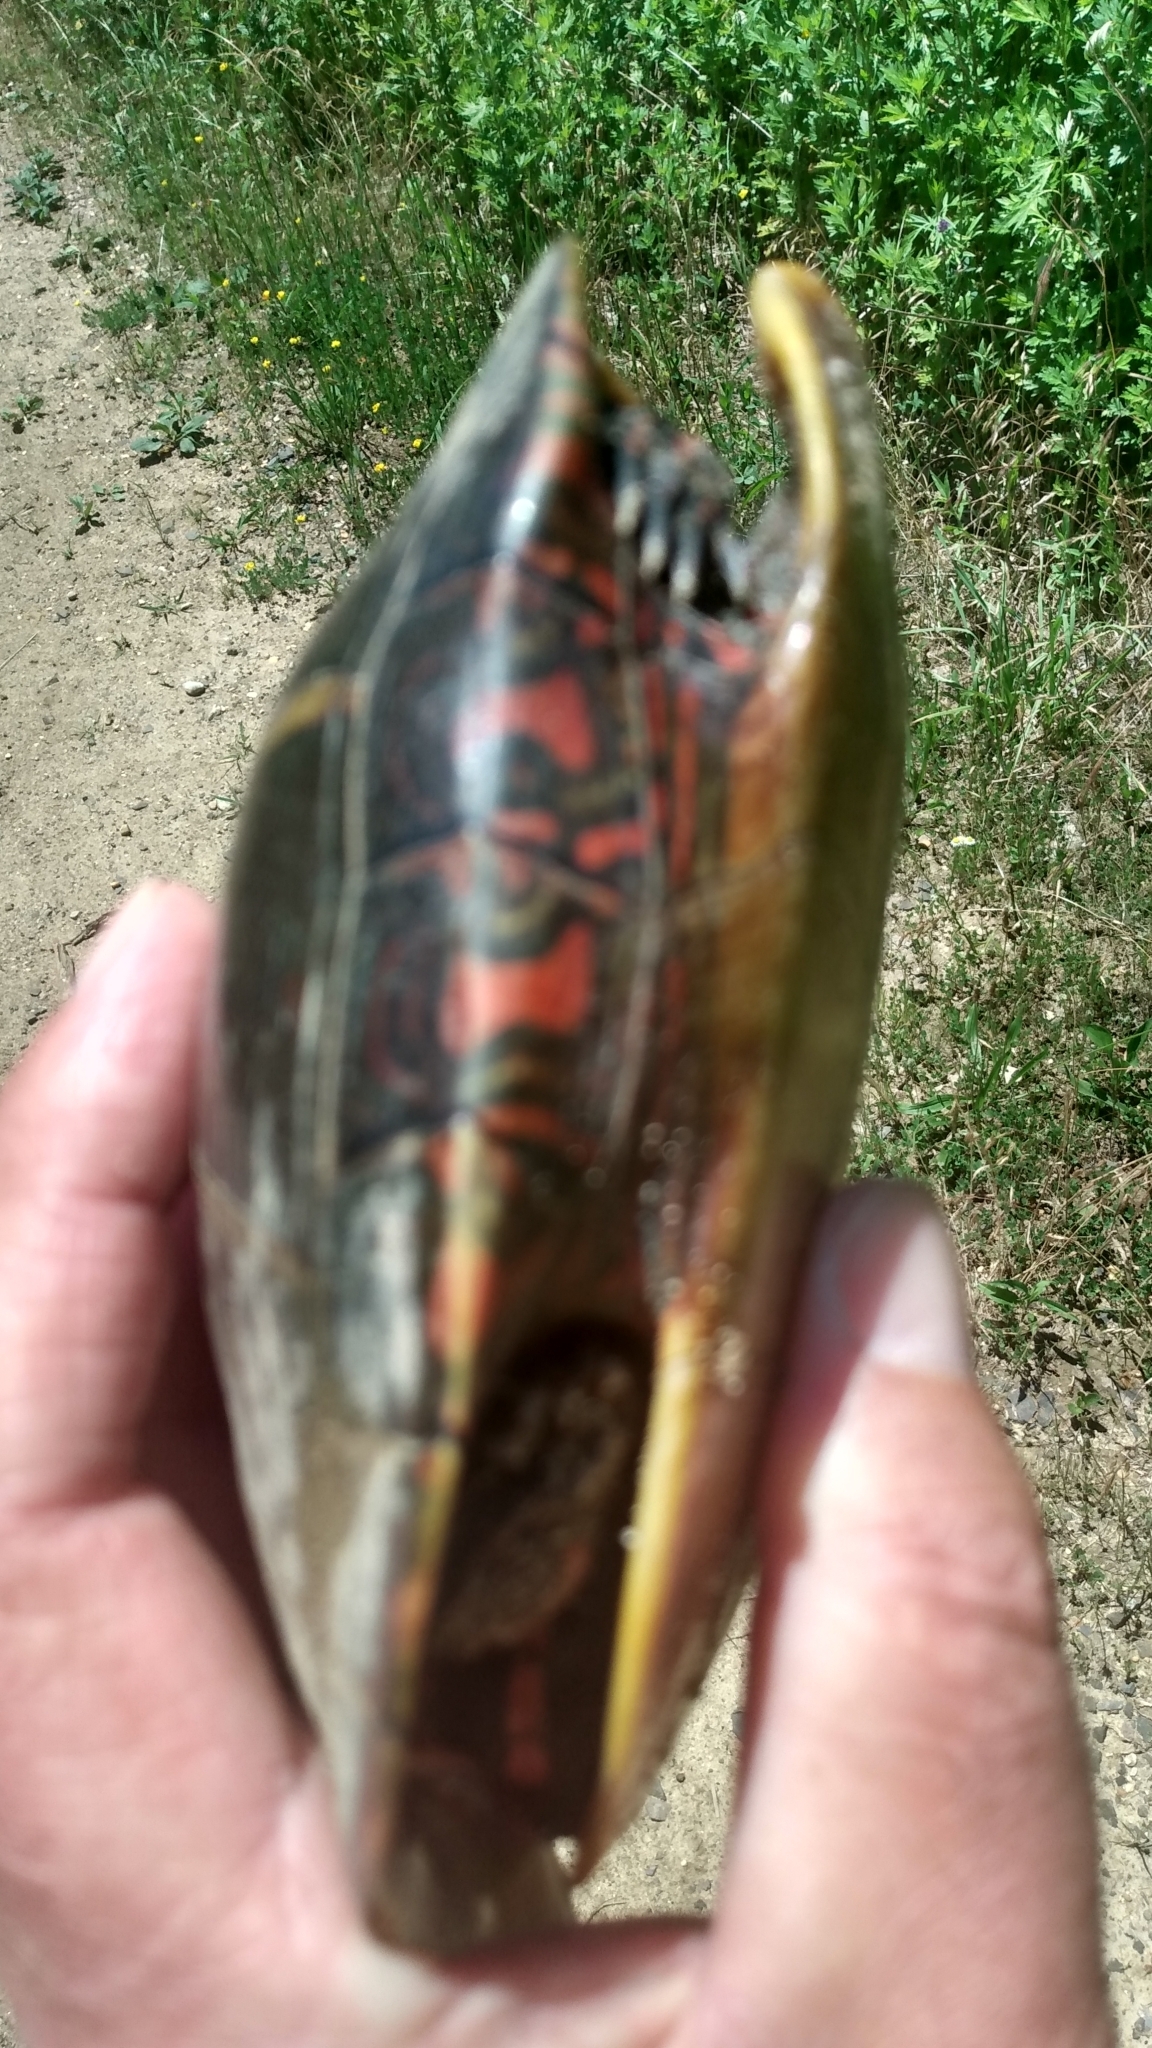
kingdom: Animalia
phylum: Chordata
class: Testudines
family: Emydidae
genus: Chrysemys
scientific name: Chrysemys picta
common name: Painted turtle
